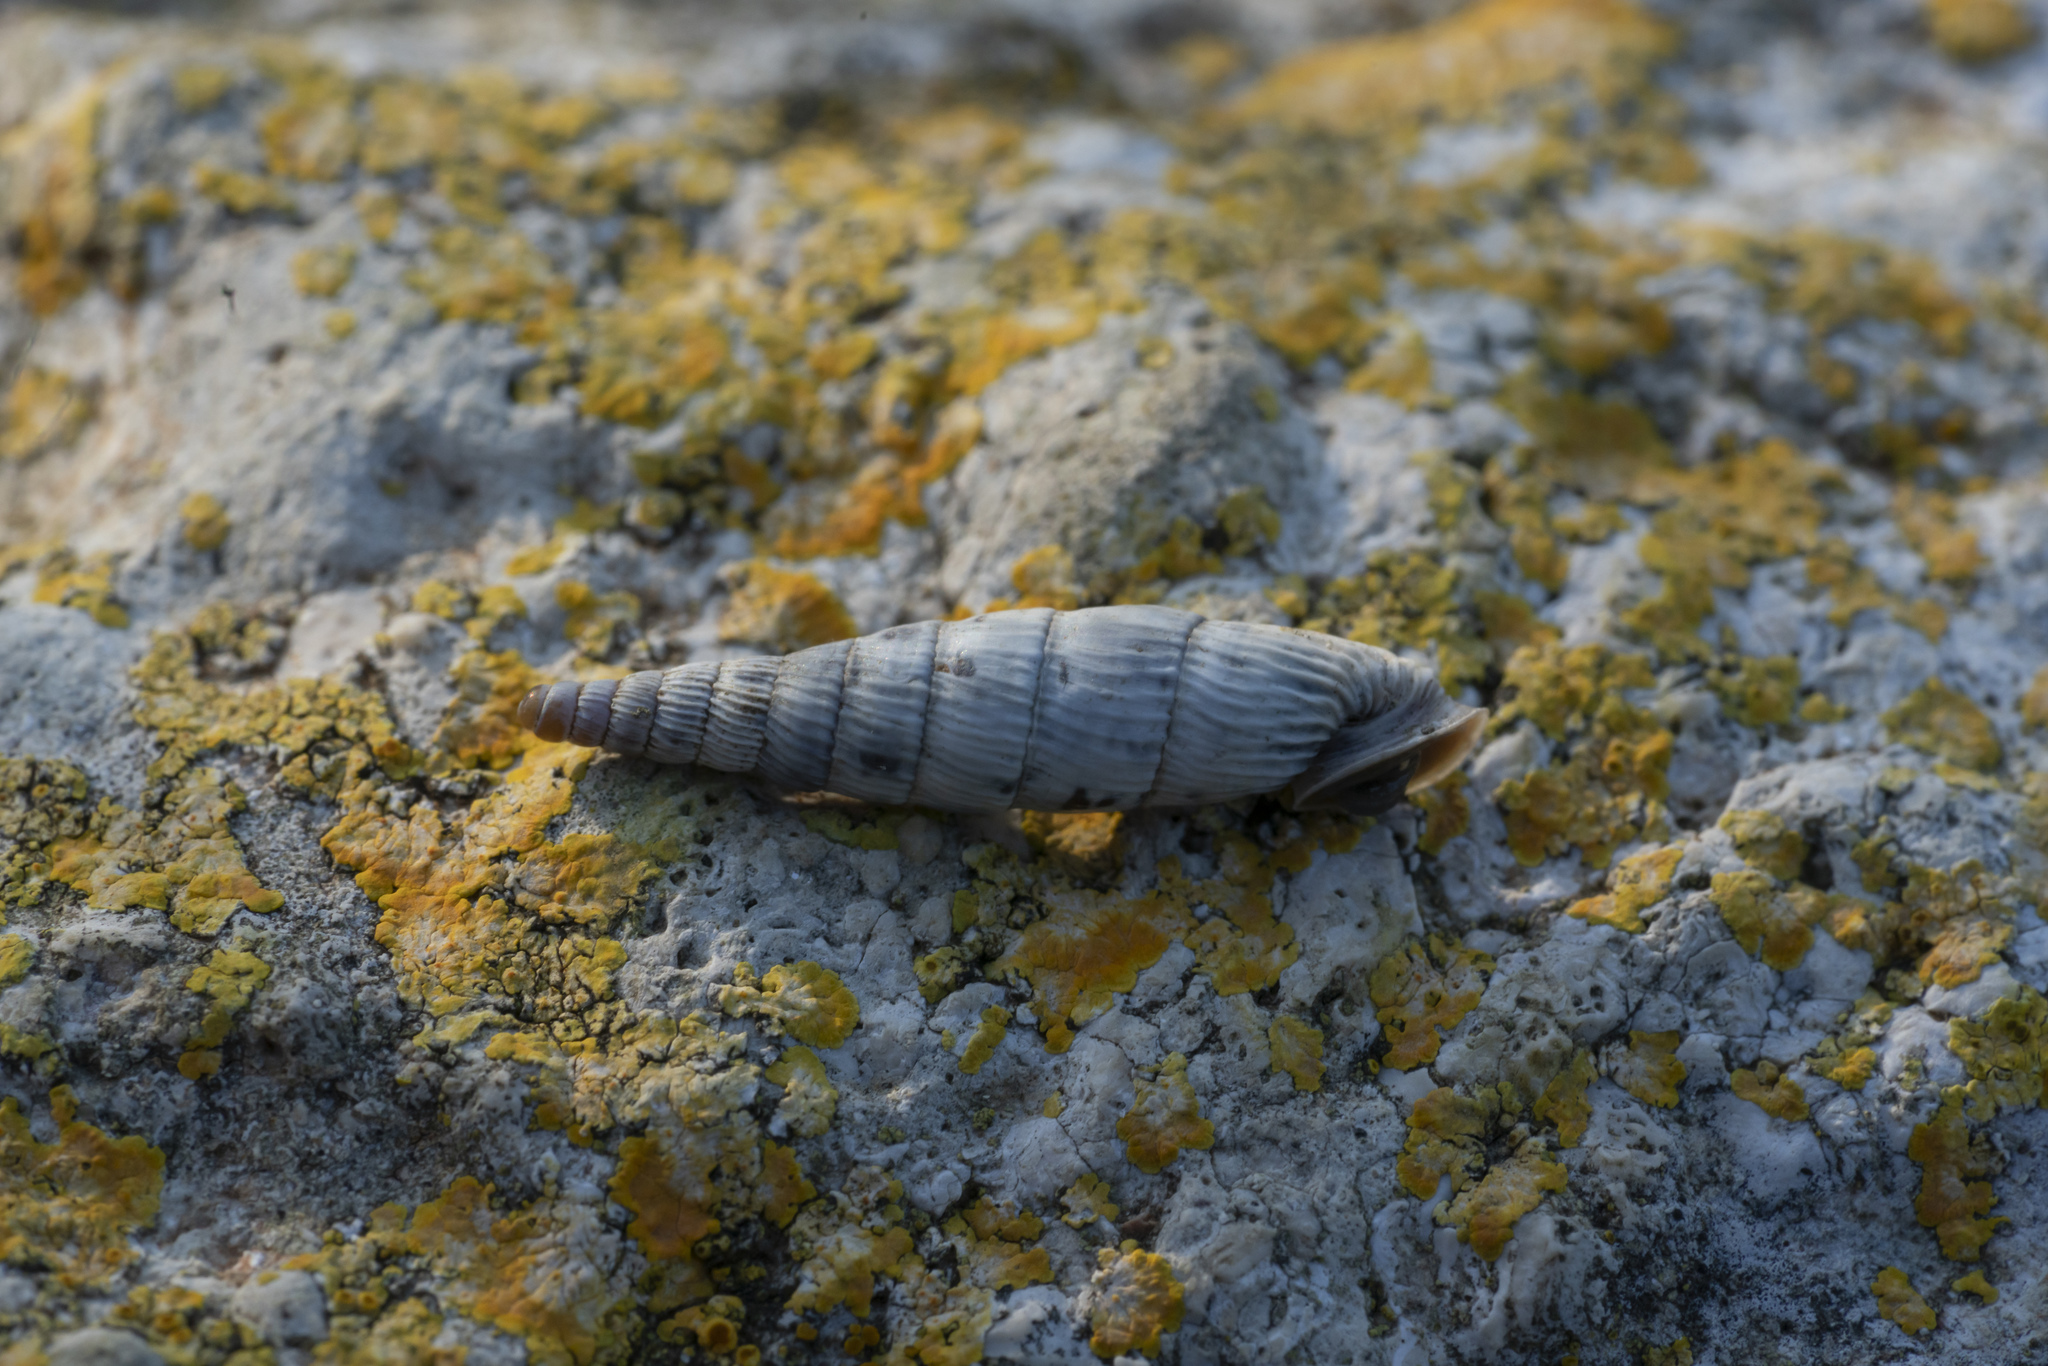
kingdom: Animalia
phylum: Mollusca
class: Gastropoda
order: Stylommatophora
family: Clausiliidae
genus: Albinaria
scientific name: Albinaria olivieri
